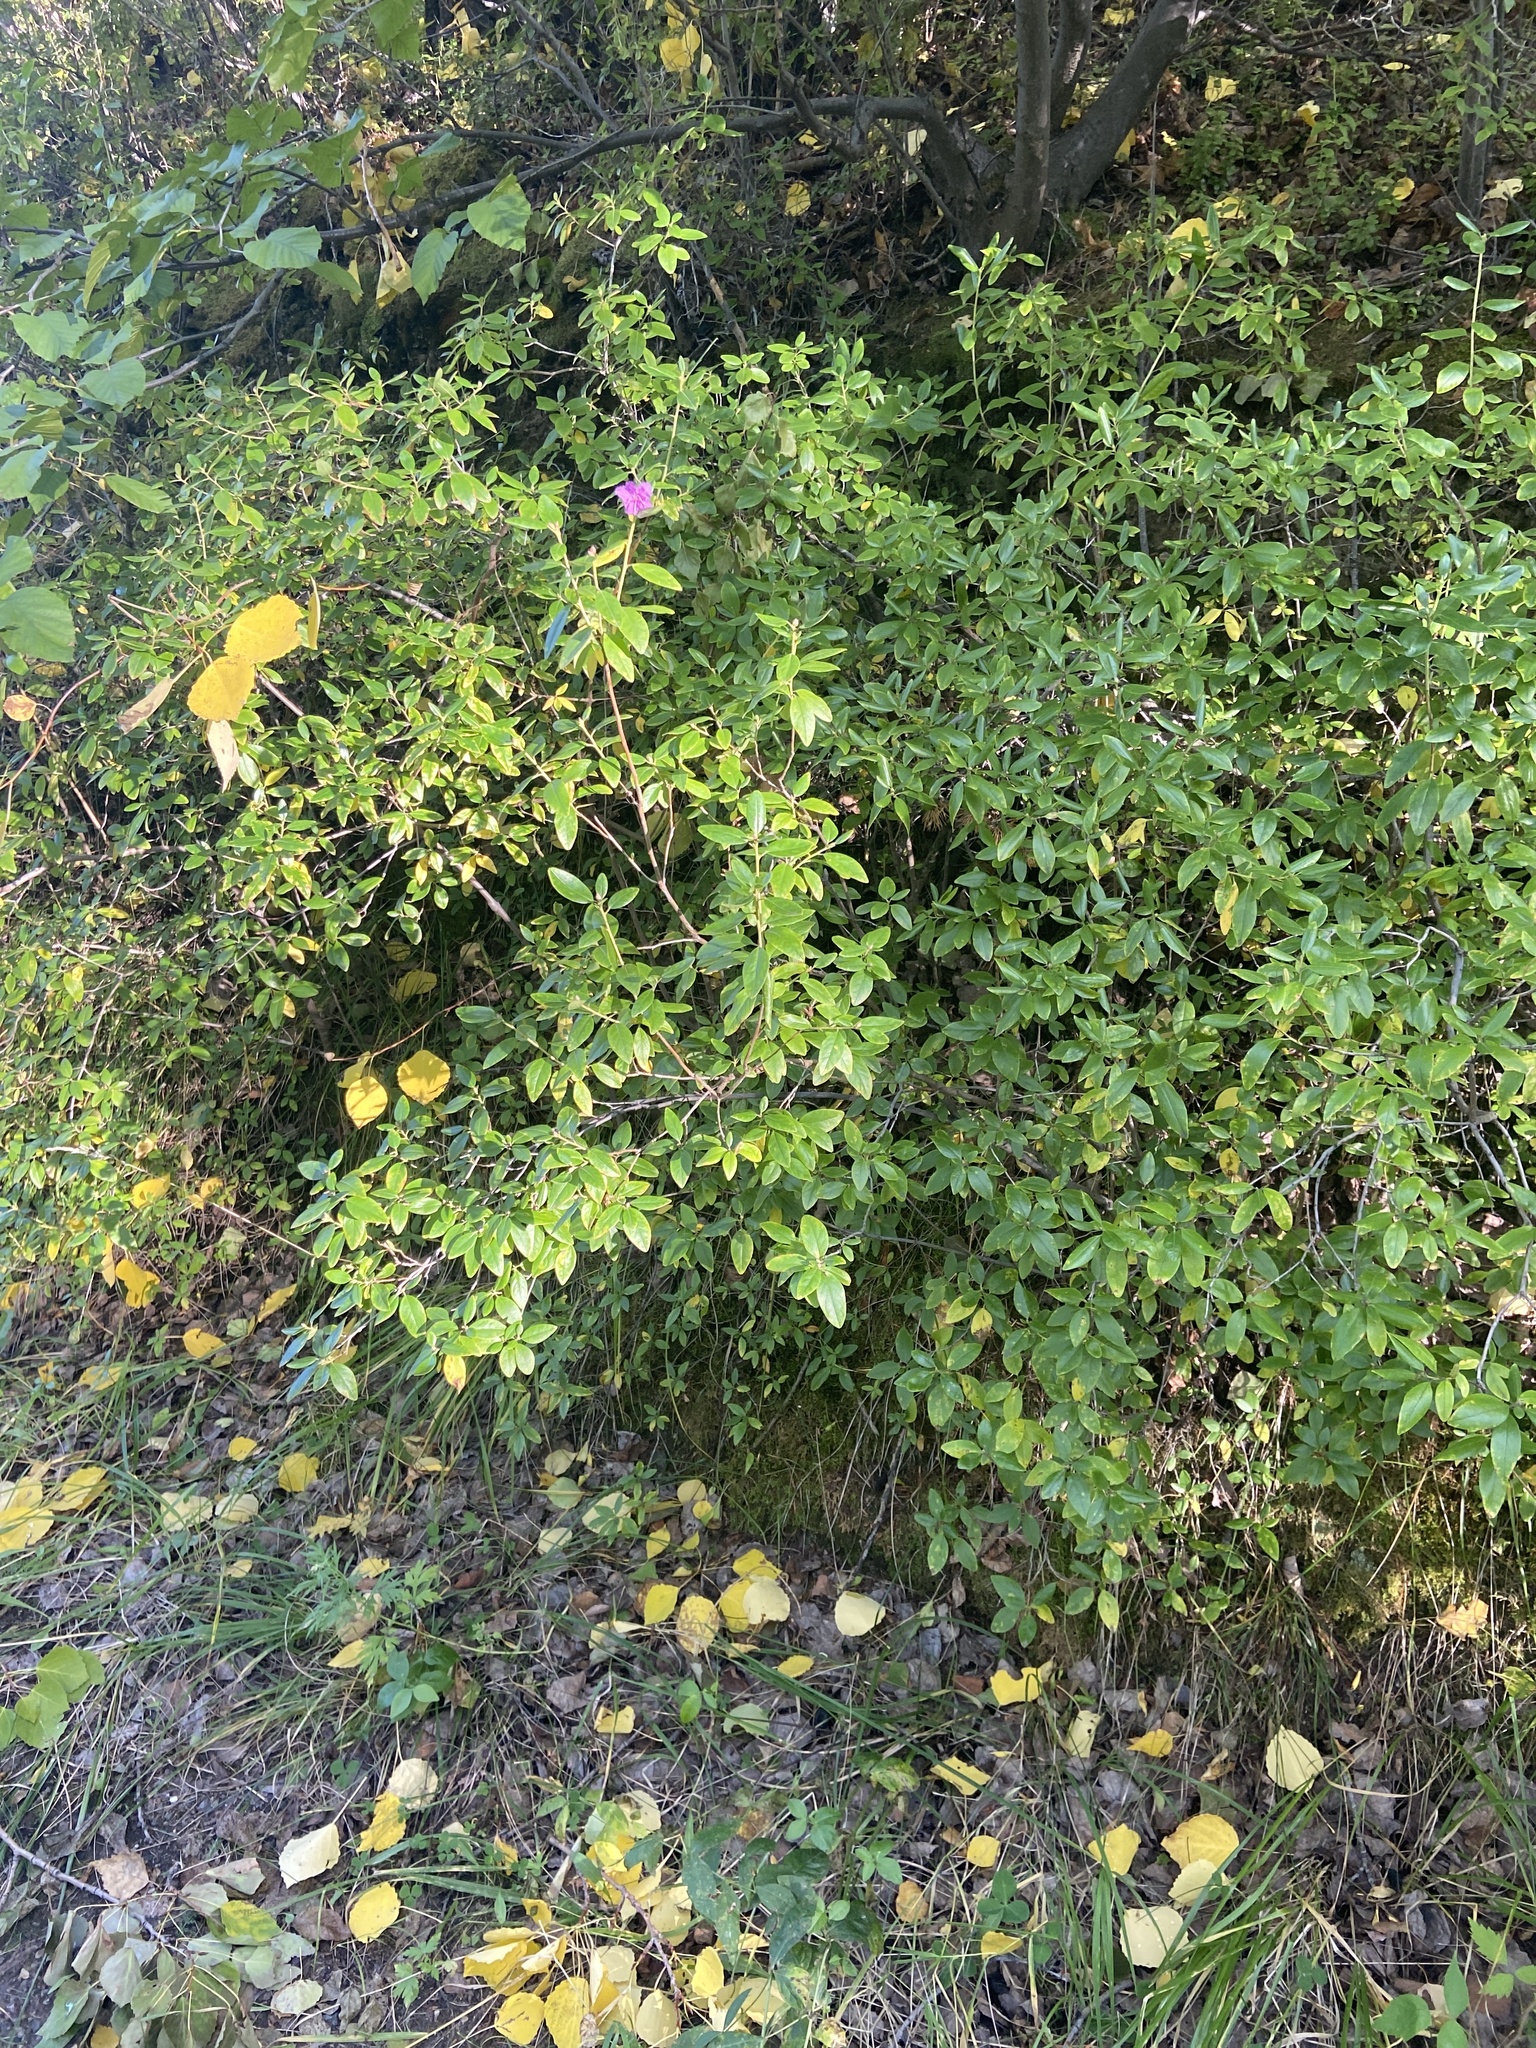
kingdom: Plantae
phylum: Tracheophyta
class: Magnoliopsida
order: Ericales
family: Ericaceae
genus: Rhododendron
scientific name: Rhododendron dauricum
